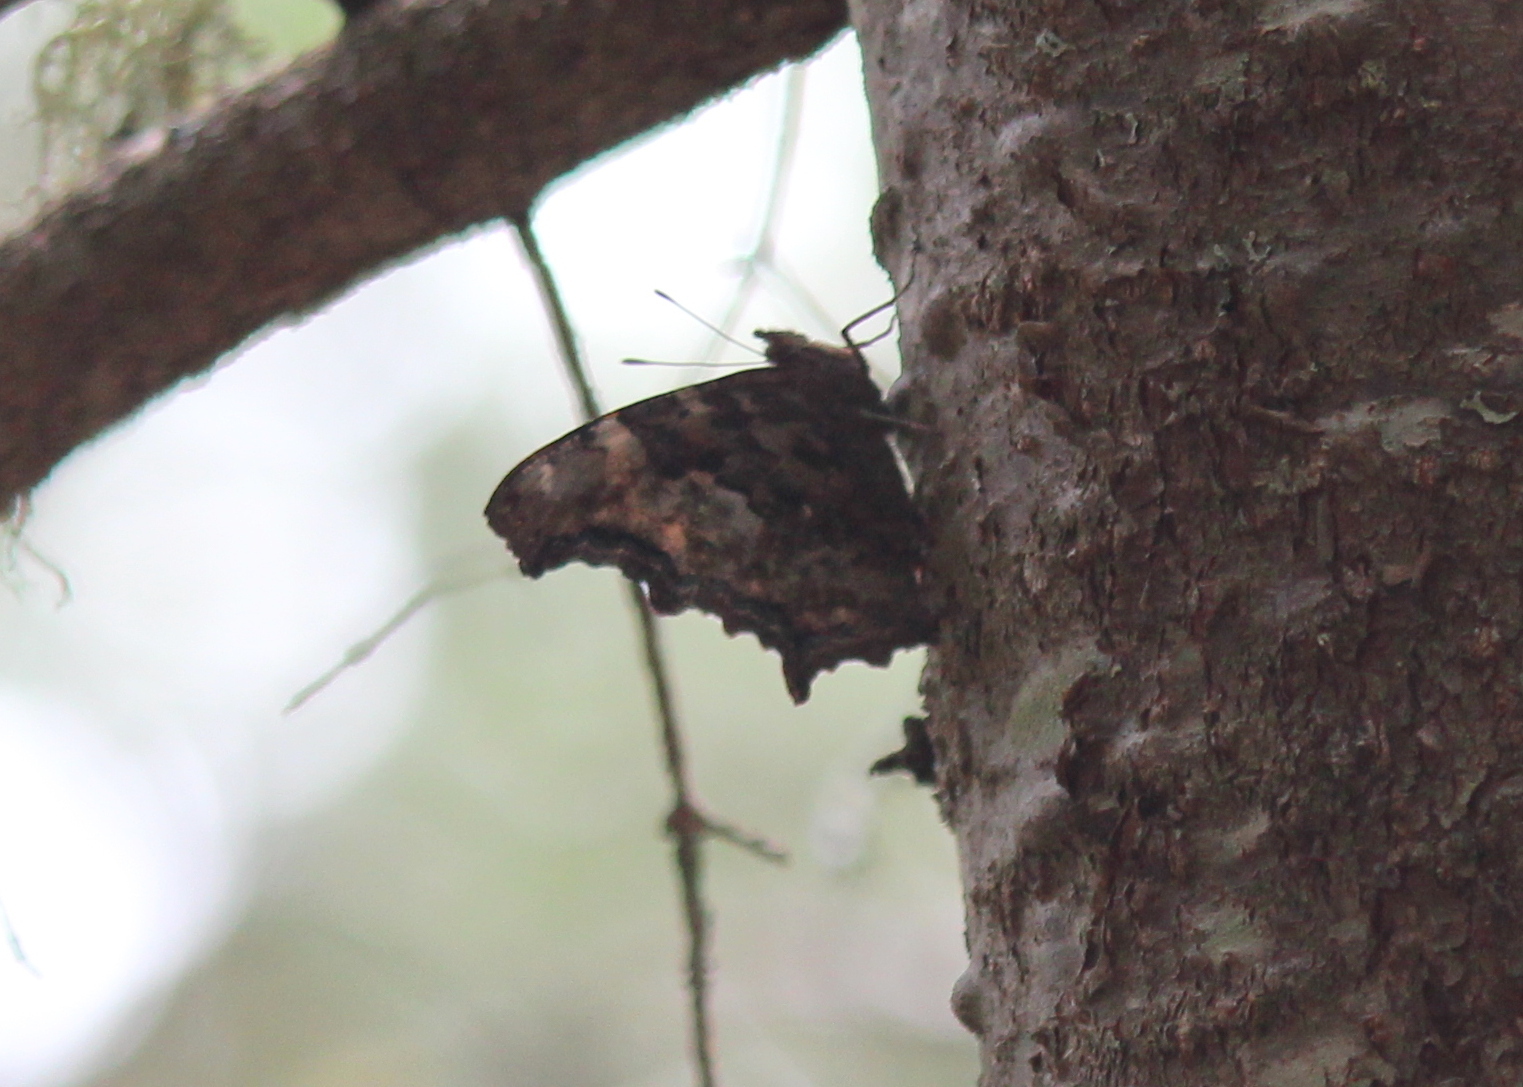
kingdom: Animalia
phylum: Arthropoda
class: Insecta
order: Lepidoptera
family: Nymphalidae
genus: Polygonia
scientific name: Polygonia vaualbum
